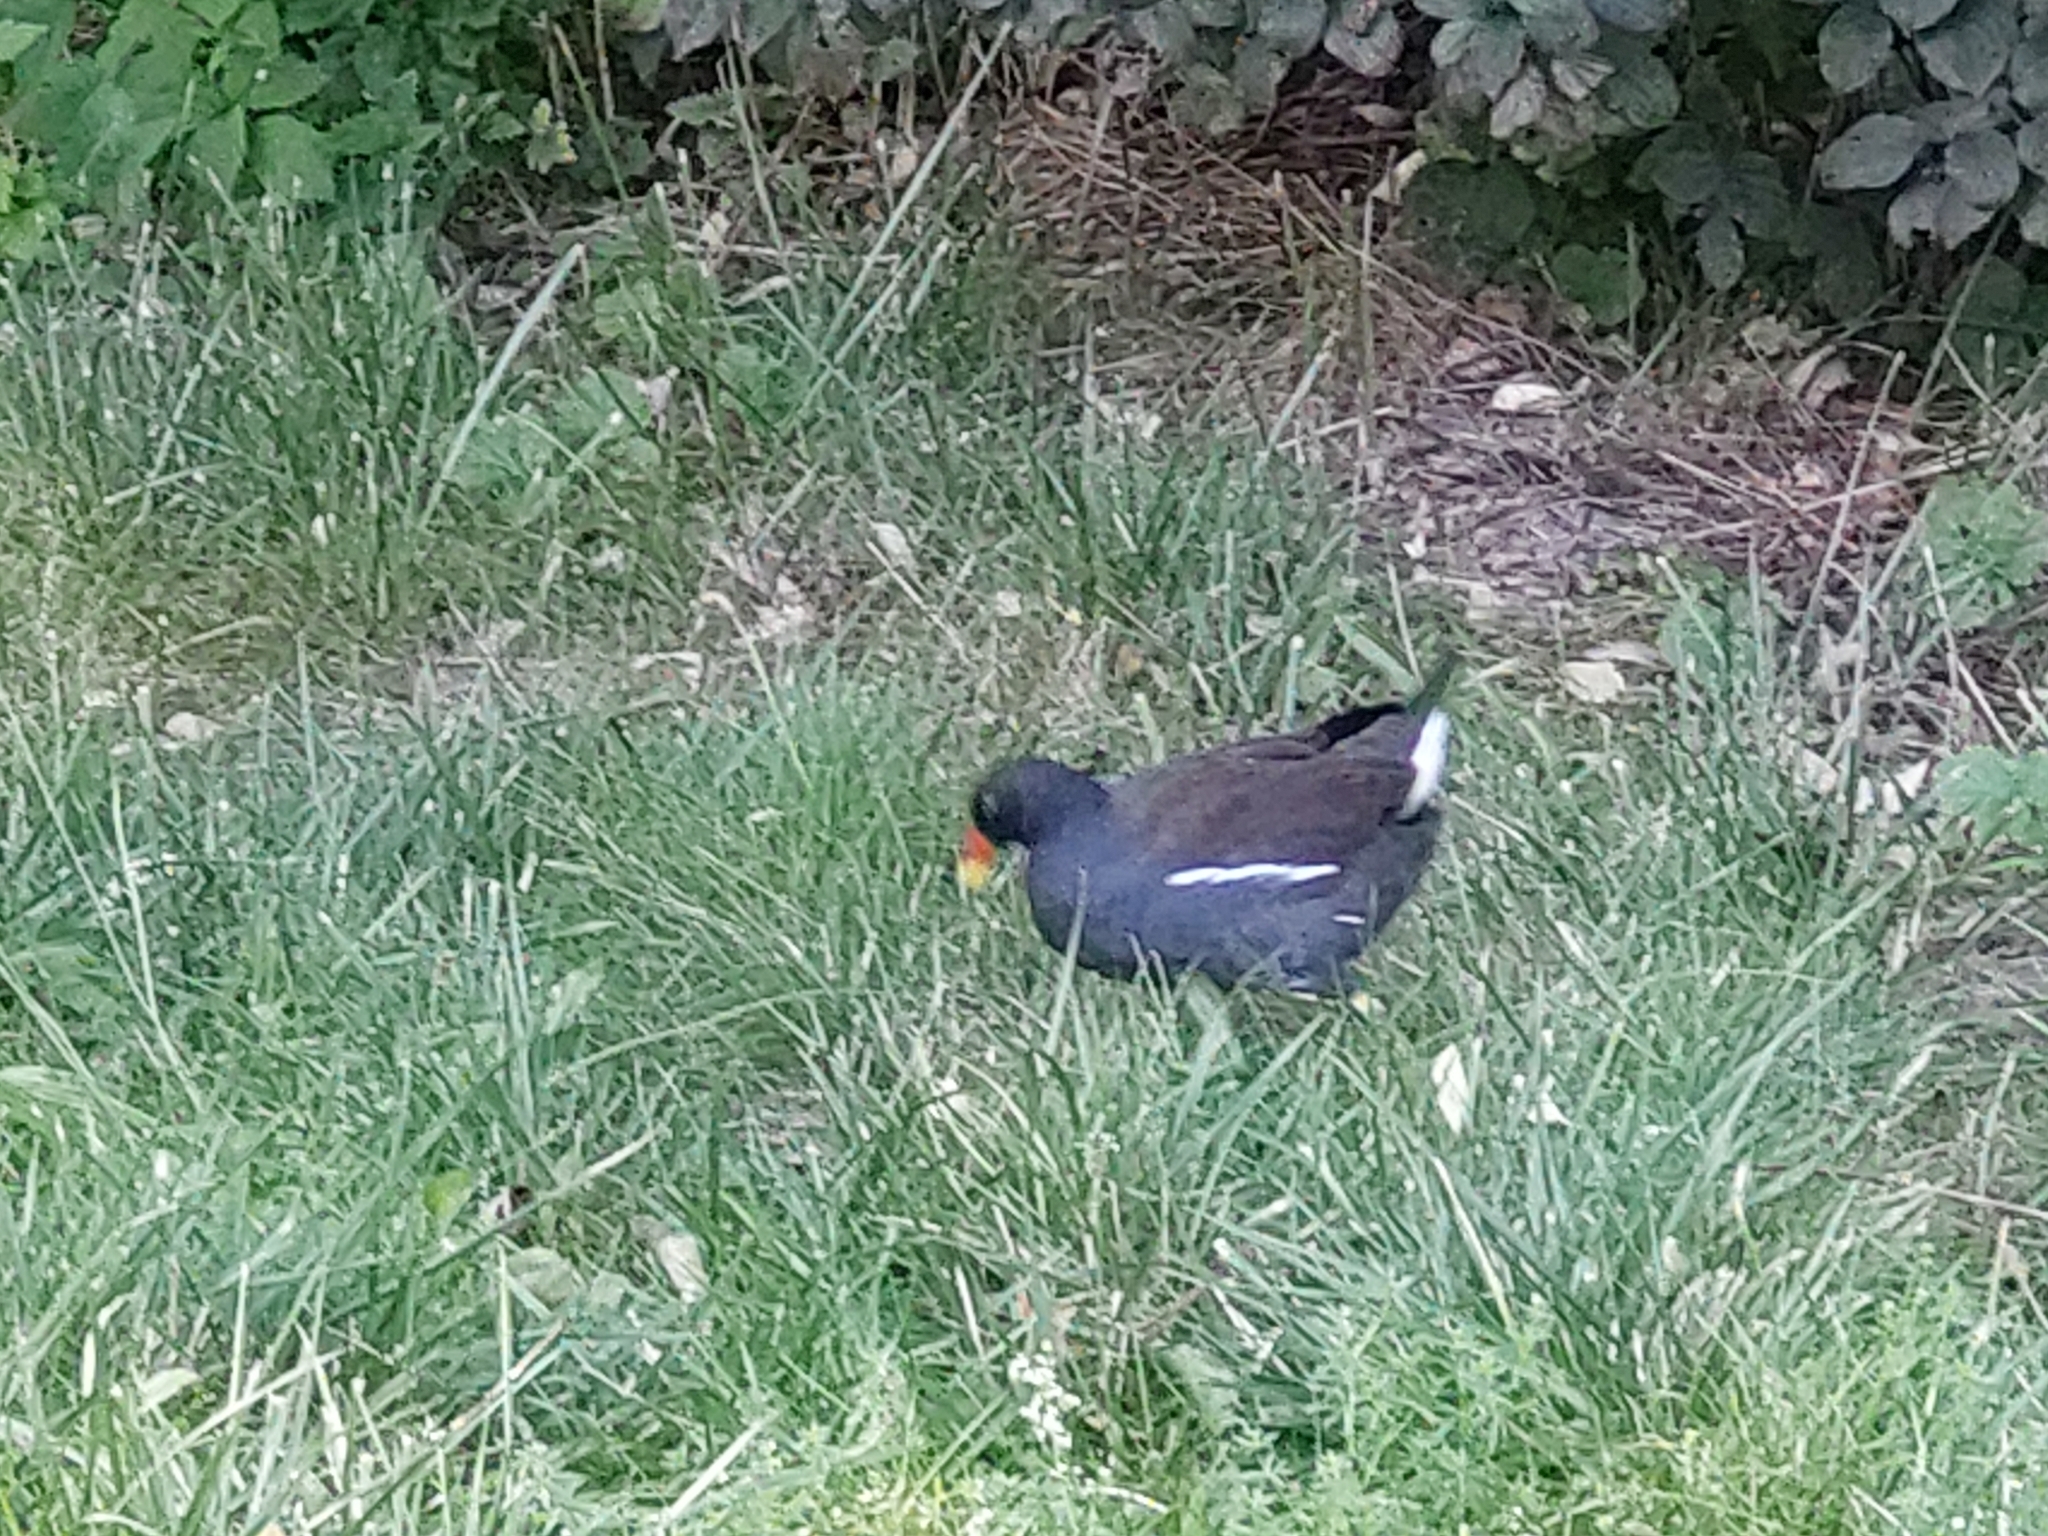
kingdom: Animalia
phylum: Chordata
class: Aves
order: Gruiformes
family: Rallidae
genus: Gallinula
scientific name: Gallinula chloropus
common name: Common moorhen
